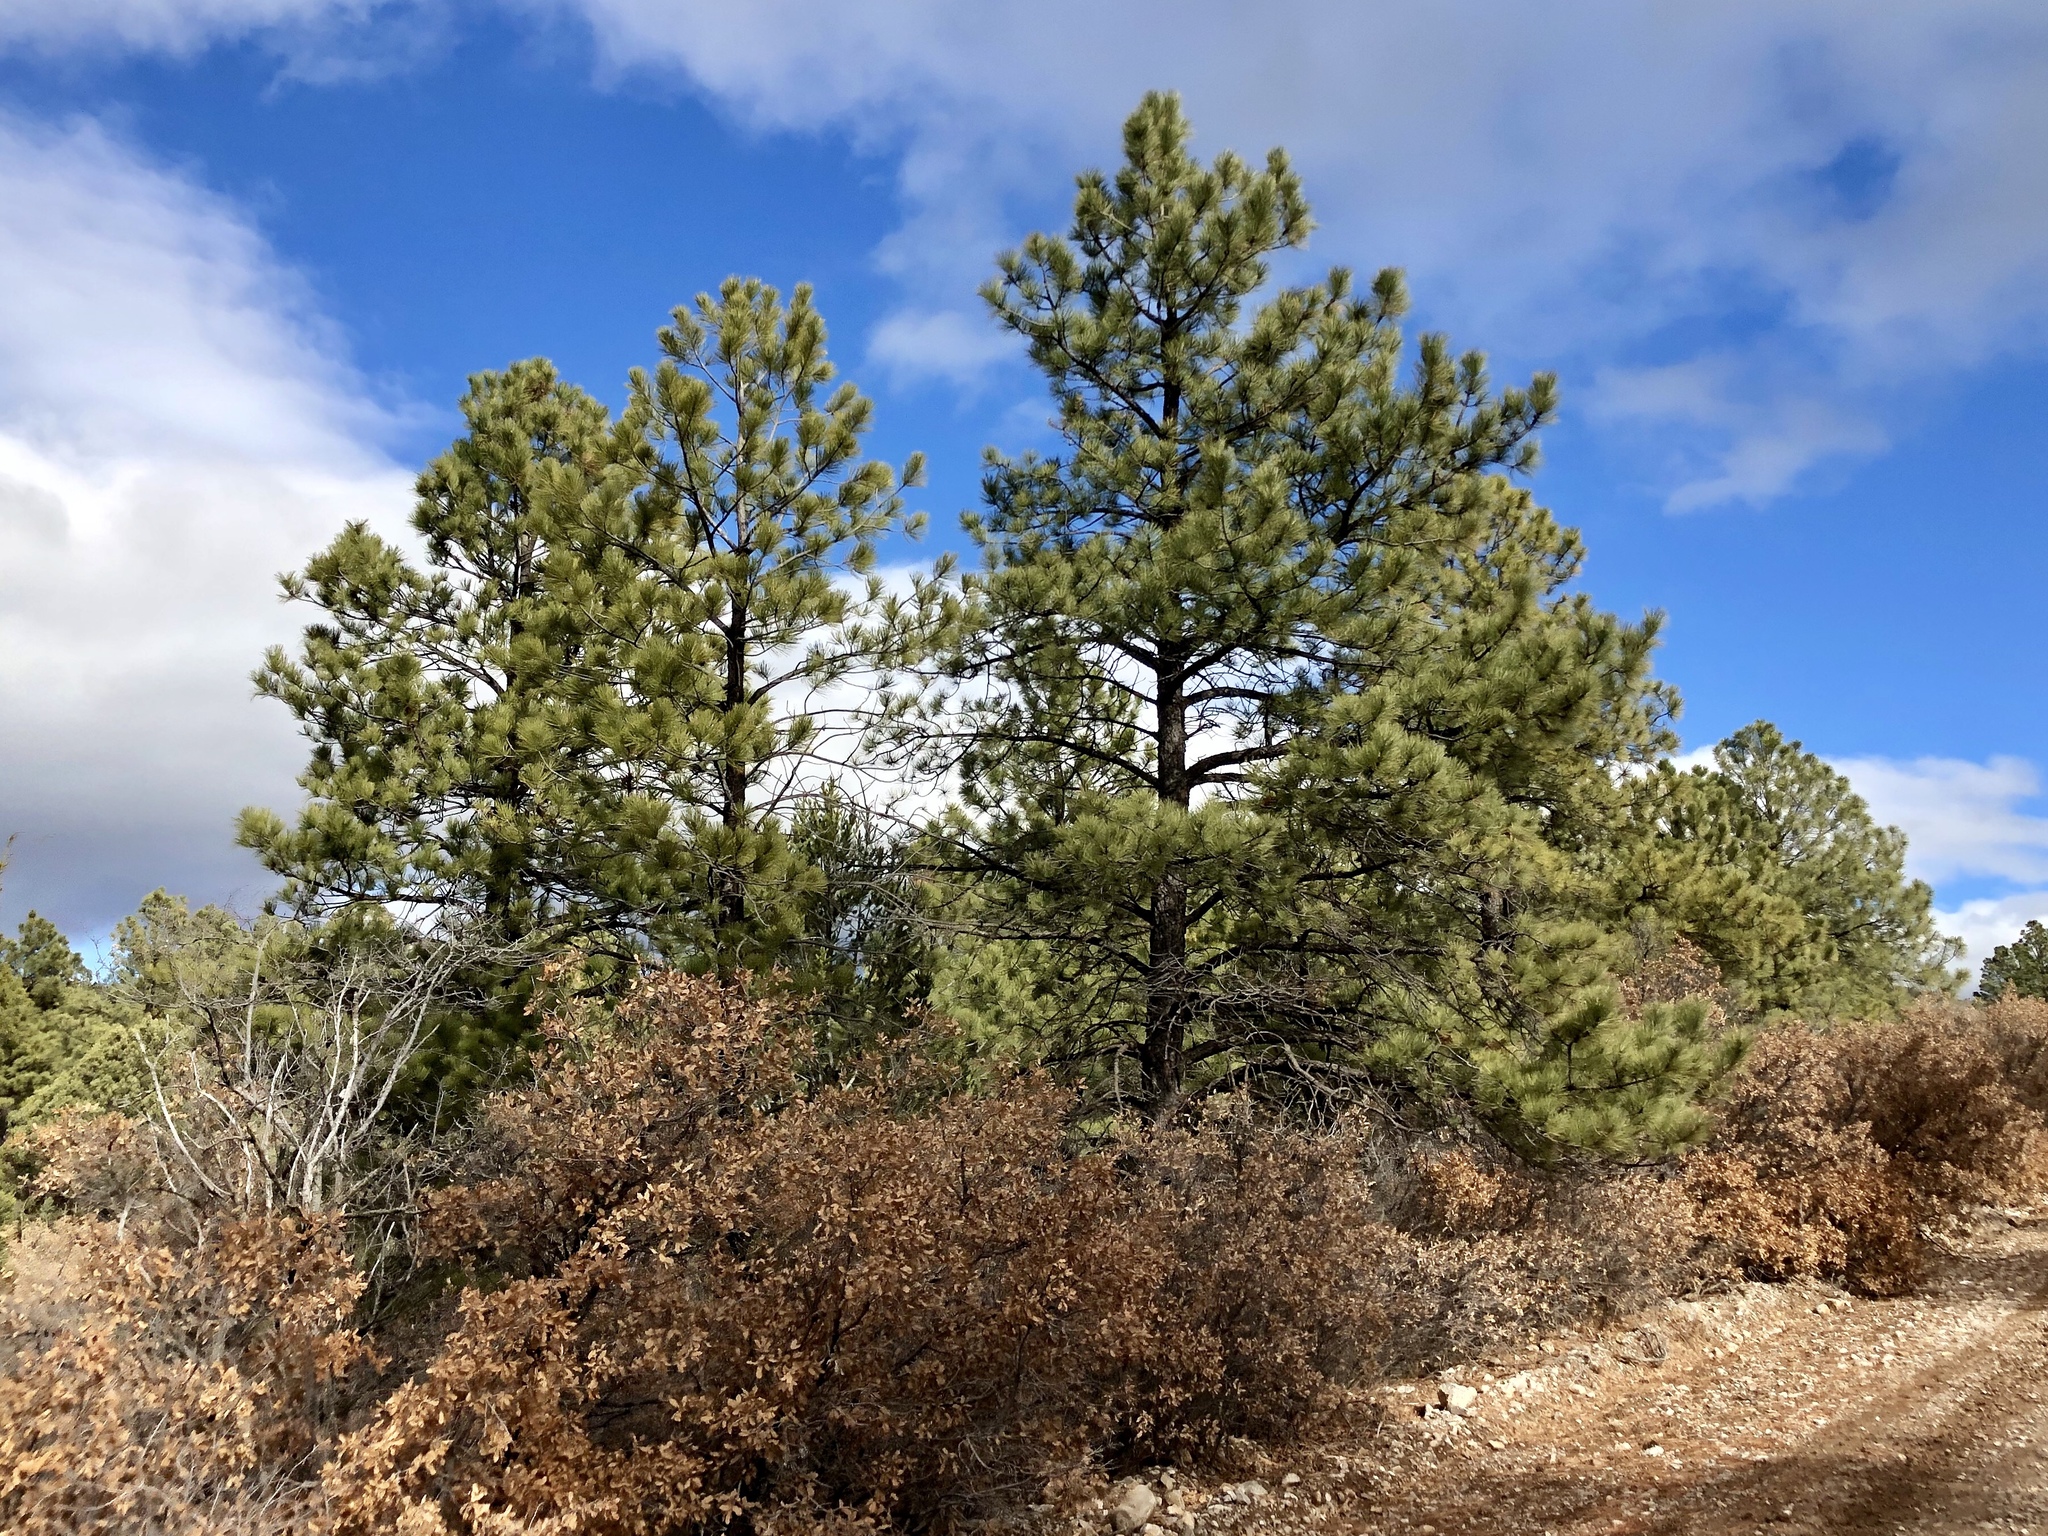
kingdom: Plantae
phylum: Tracheophyta
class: Pinopsida
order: Pinales
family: Pinaceae
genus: Pinus
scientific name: Pinus ponderosa
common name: Western yellow-pine
